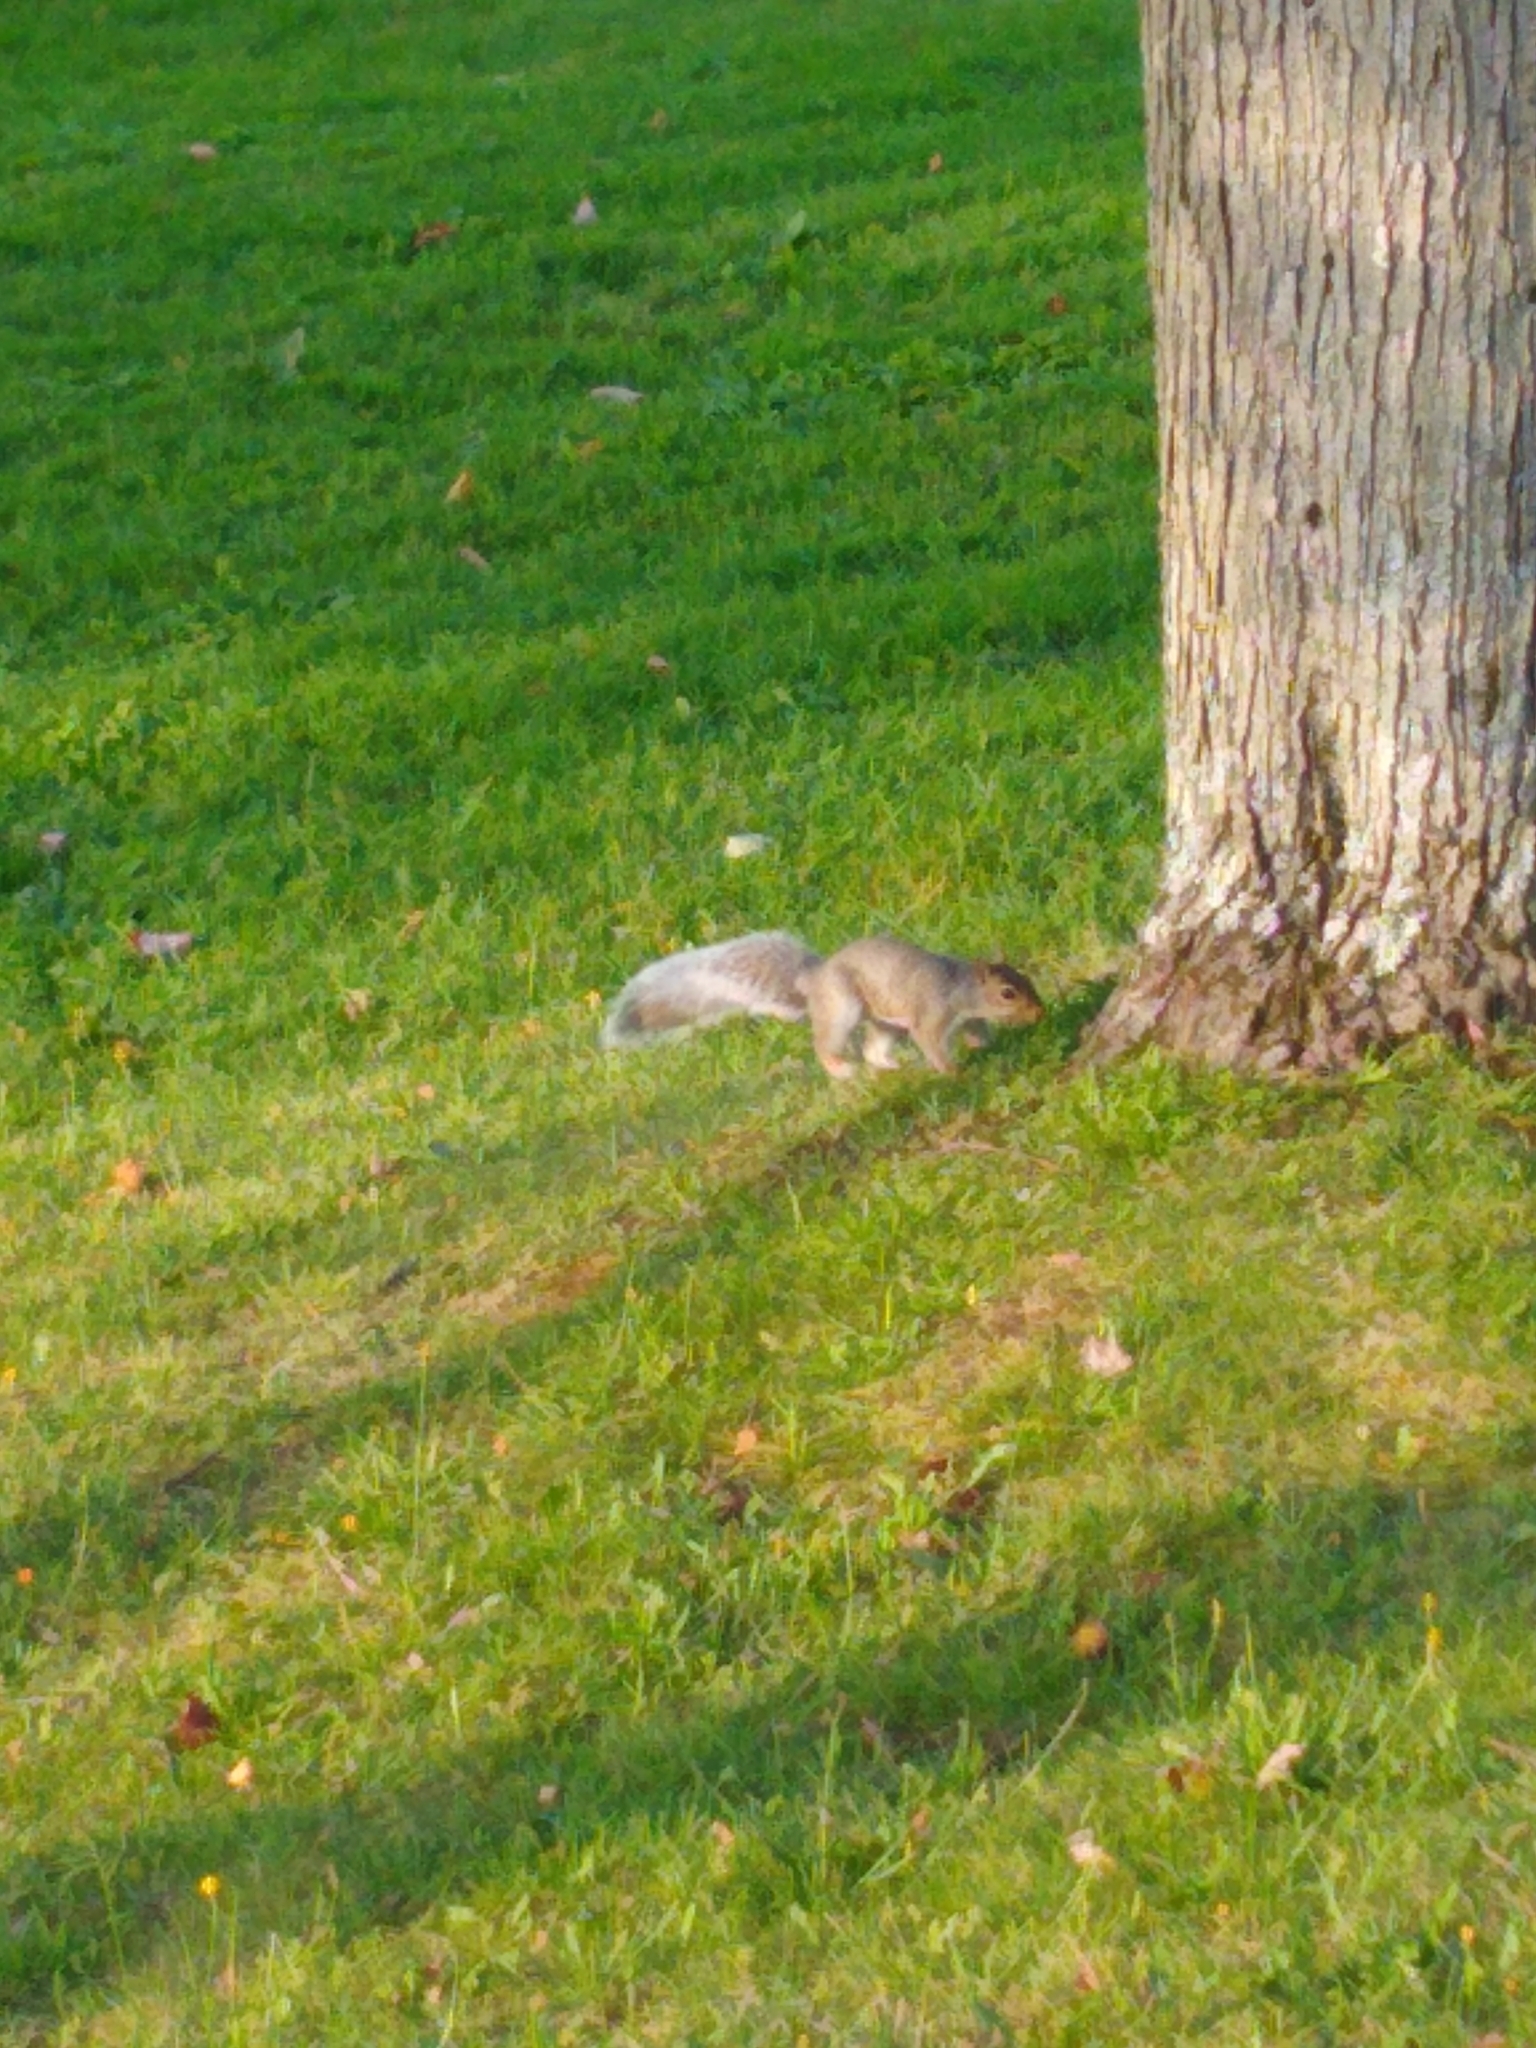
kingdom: Animalia
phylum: Chordata
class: Mammalia
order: Rodentia
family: Sciuridae
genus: Sciurus
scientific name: Sciurus carolinensis
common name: Eastern gray squirrel
